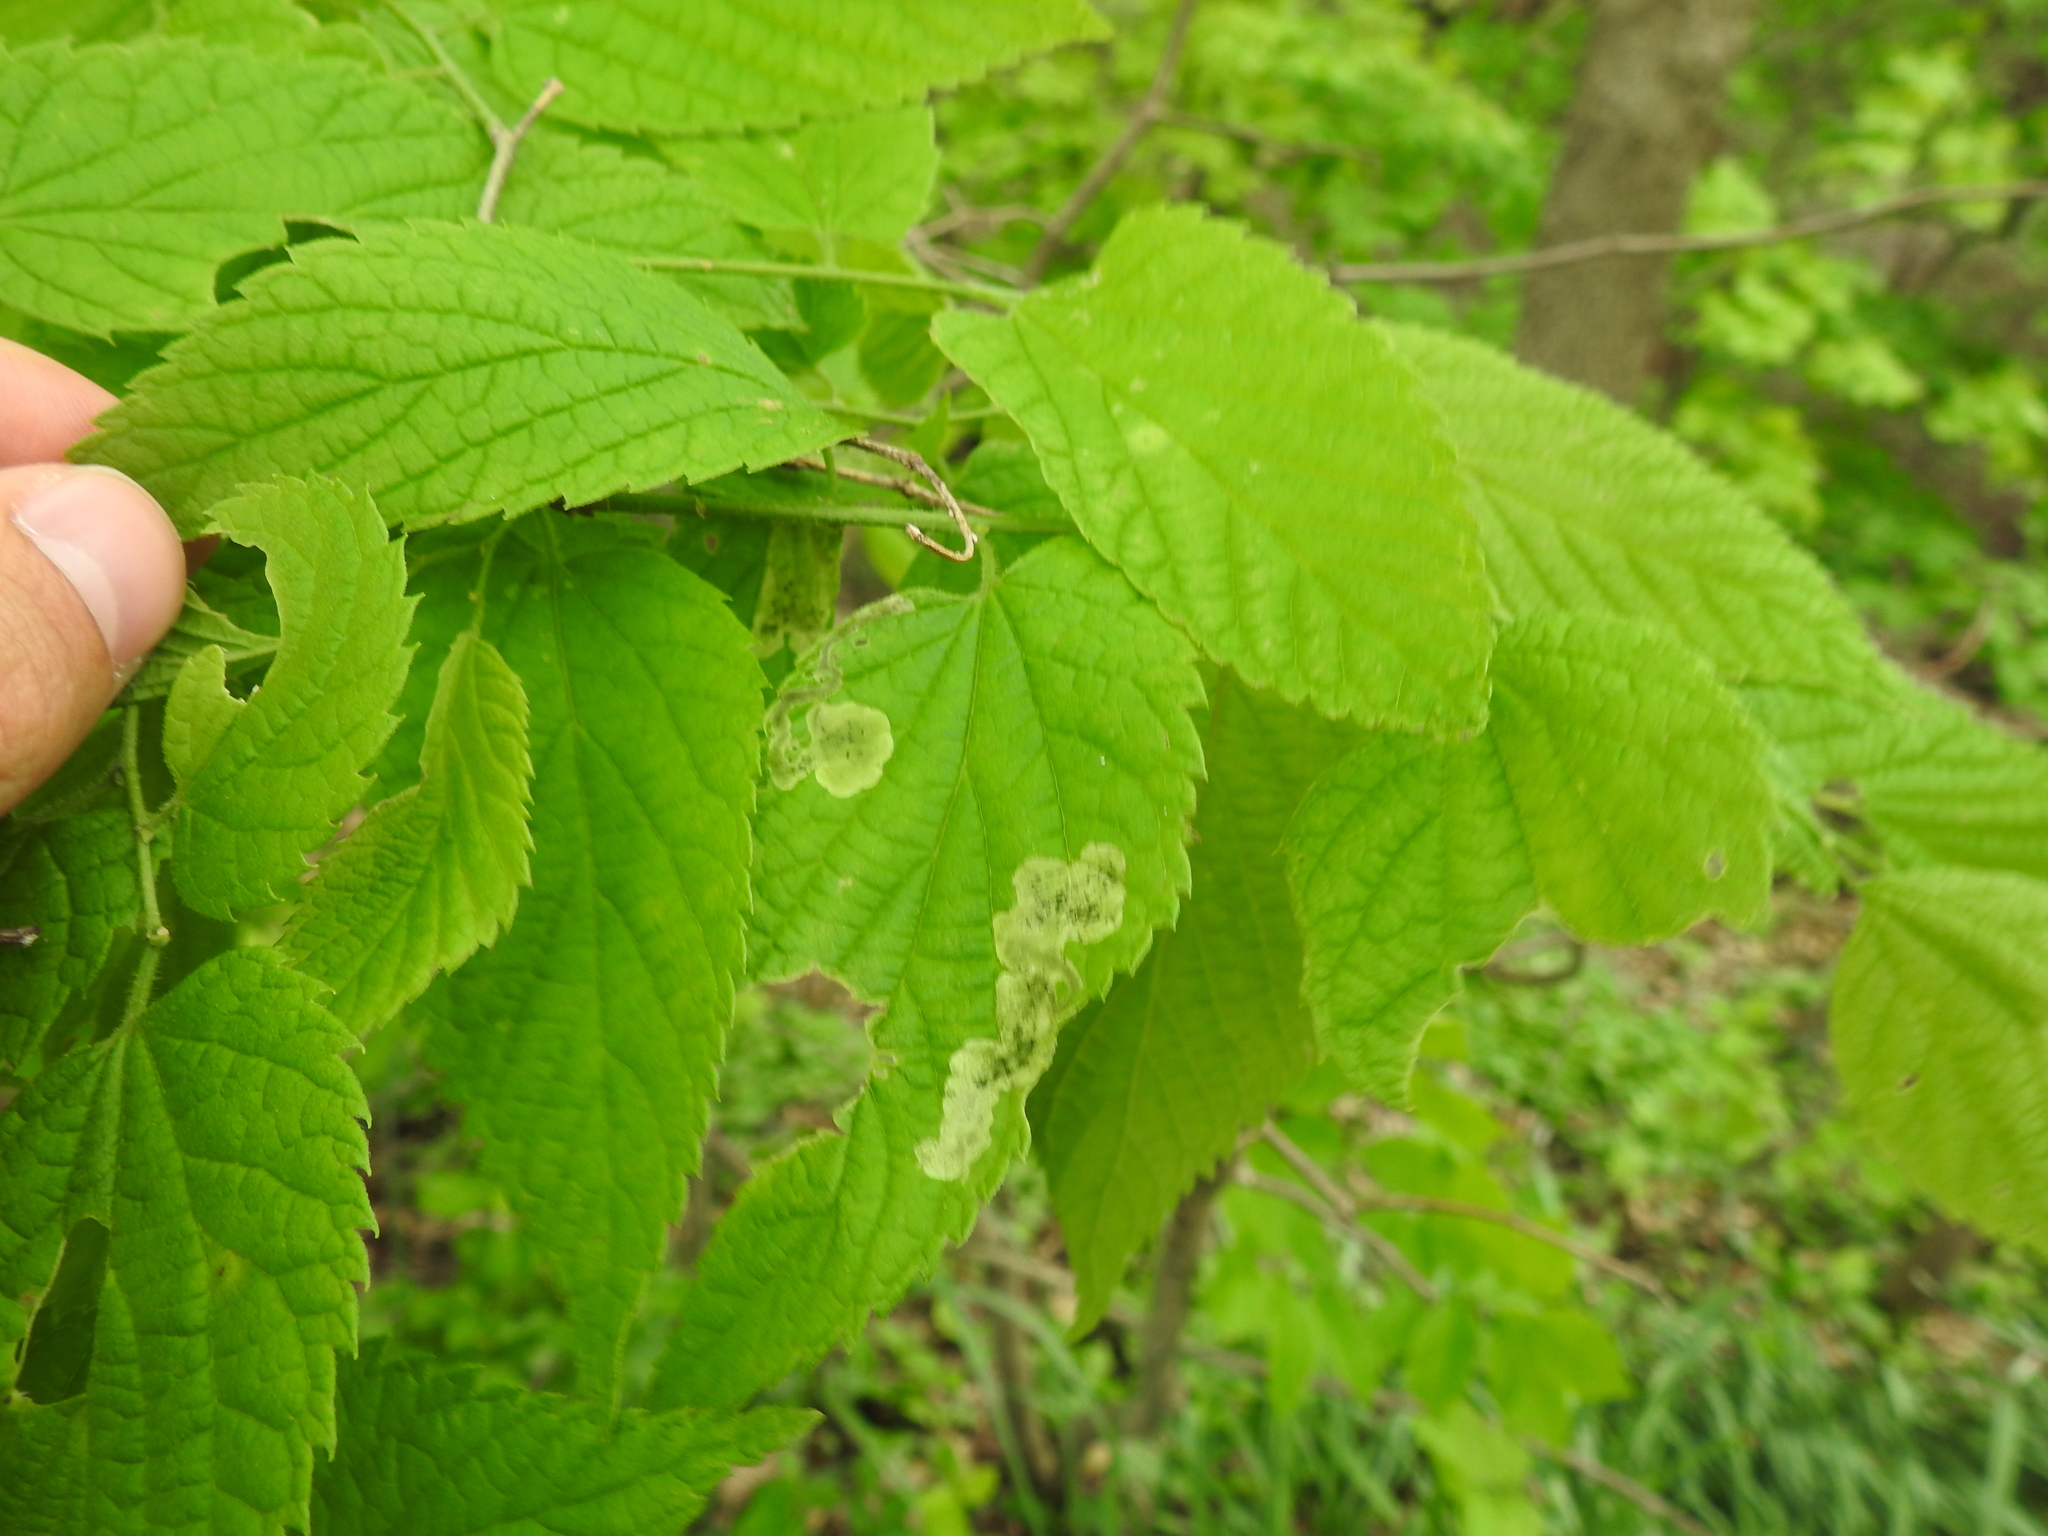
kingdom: Animalia
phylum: Arthropoda
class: Insecta
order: Diptera
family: Agromyzidae
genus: Agromyza
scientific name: Agromyza aristata
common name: Elm agromyzid leafminer
